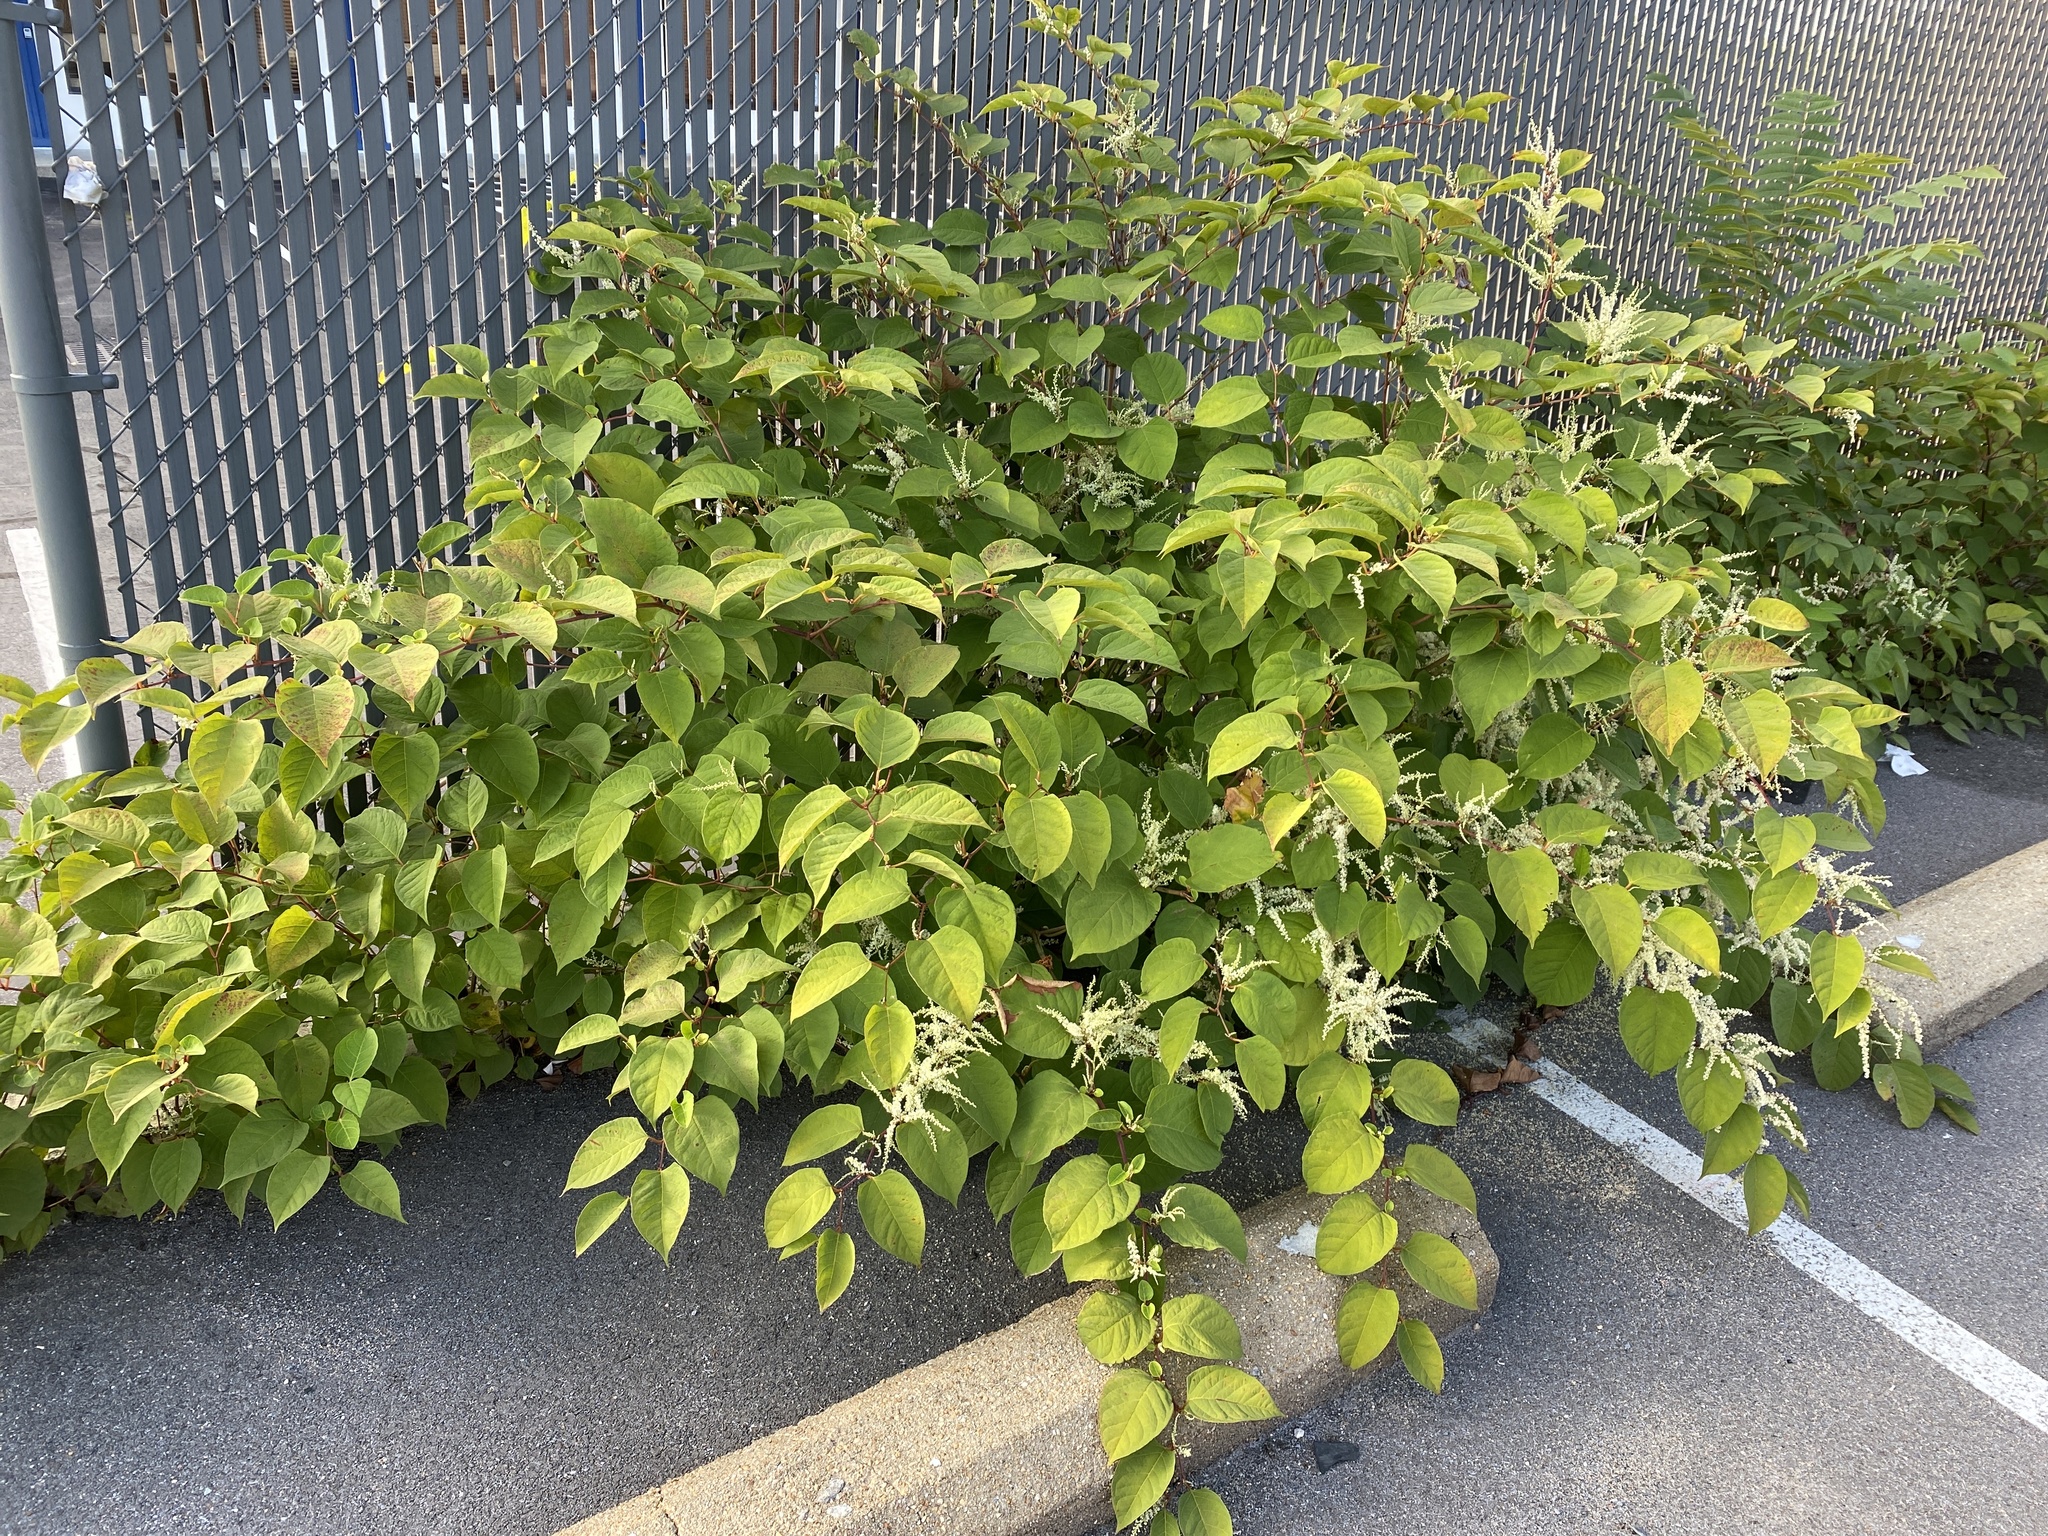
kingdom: Plantae
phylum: Tracheophyta
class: Magnoliopsida
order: Caryophyllales
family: Polygonaceae
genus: Reynoutria
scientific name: Reynoutria japonica
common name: Japanese knotweed
